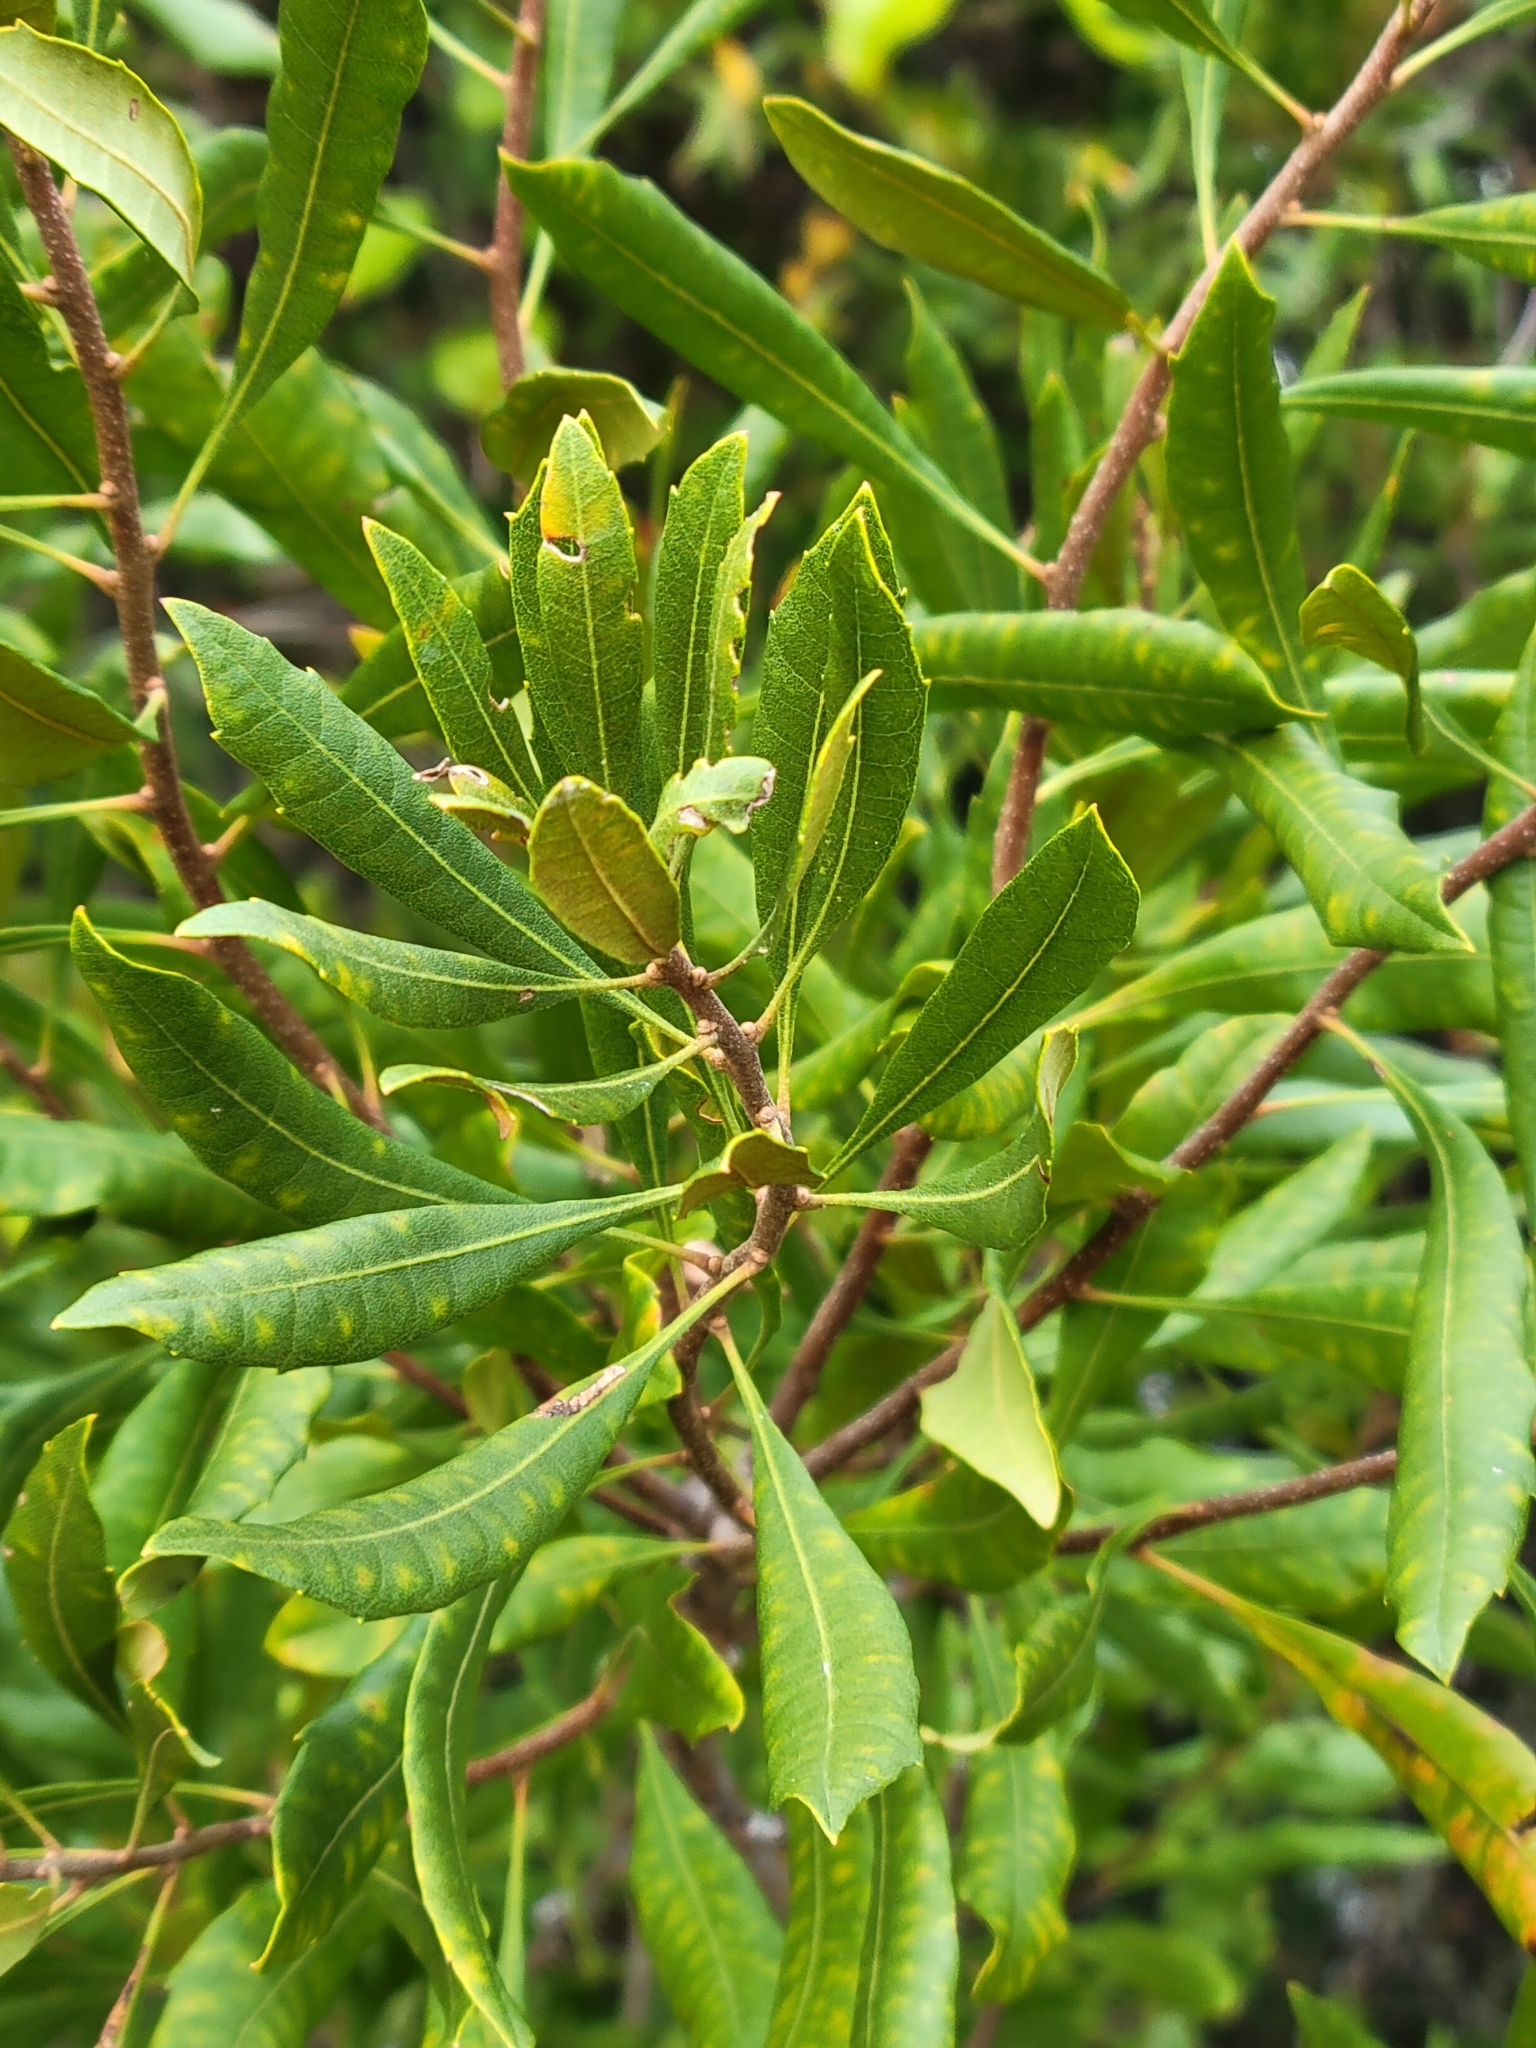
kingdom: Plantae
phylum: Tracheophyta
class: Magnoliopsida
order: Fagales
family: Myricaceae
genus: Morella
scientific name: Morella cerifera
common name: Wax myrtle
